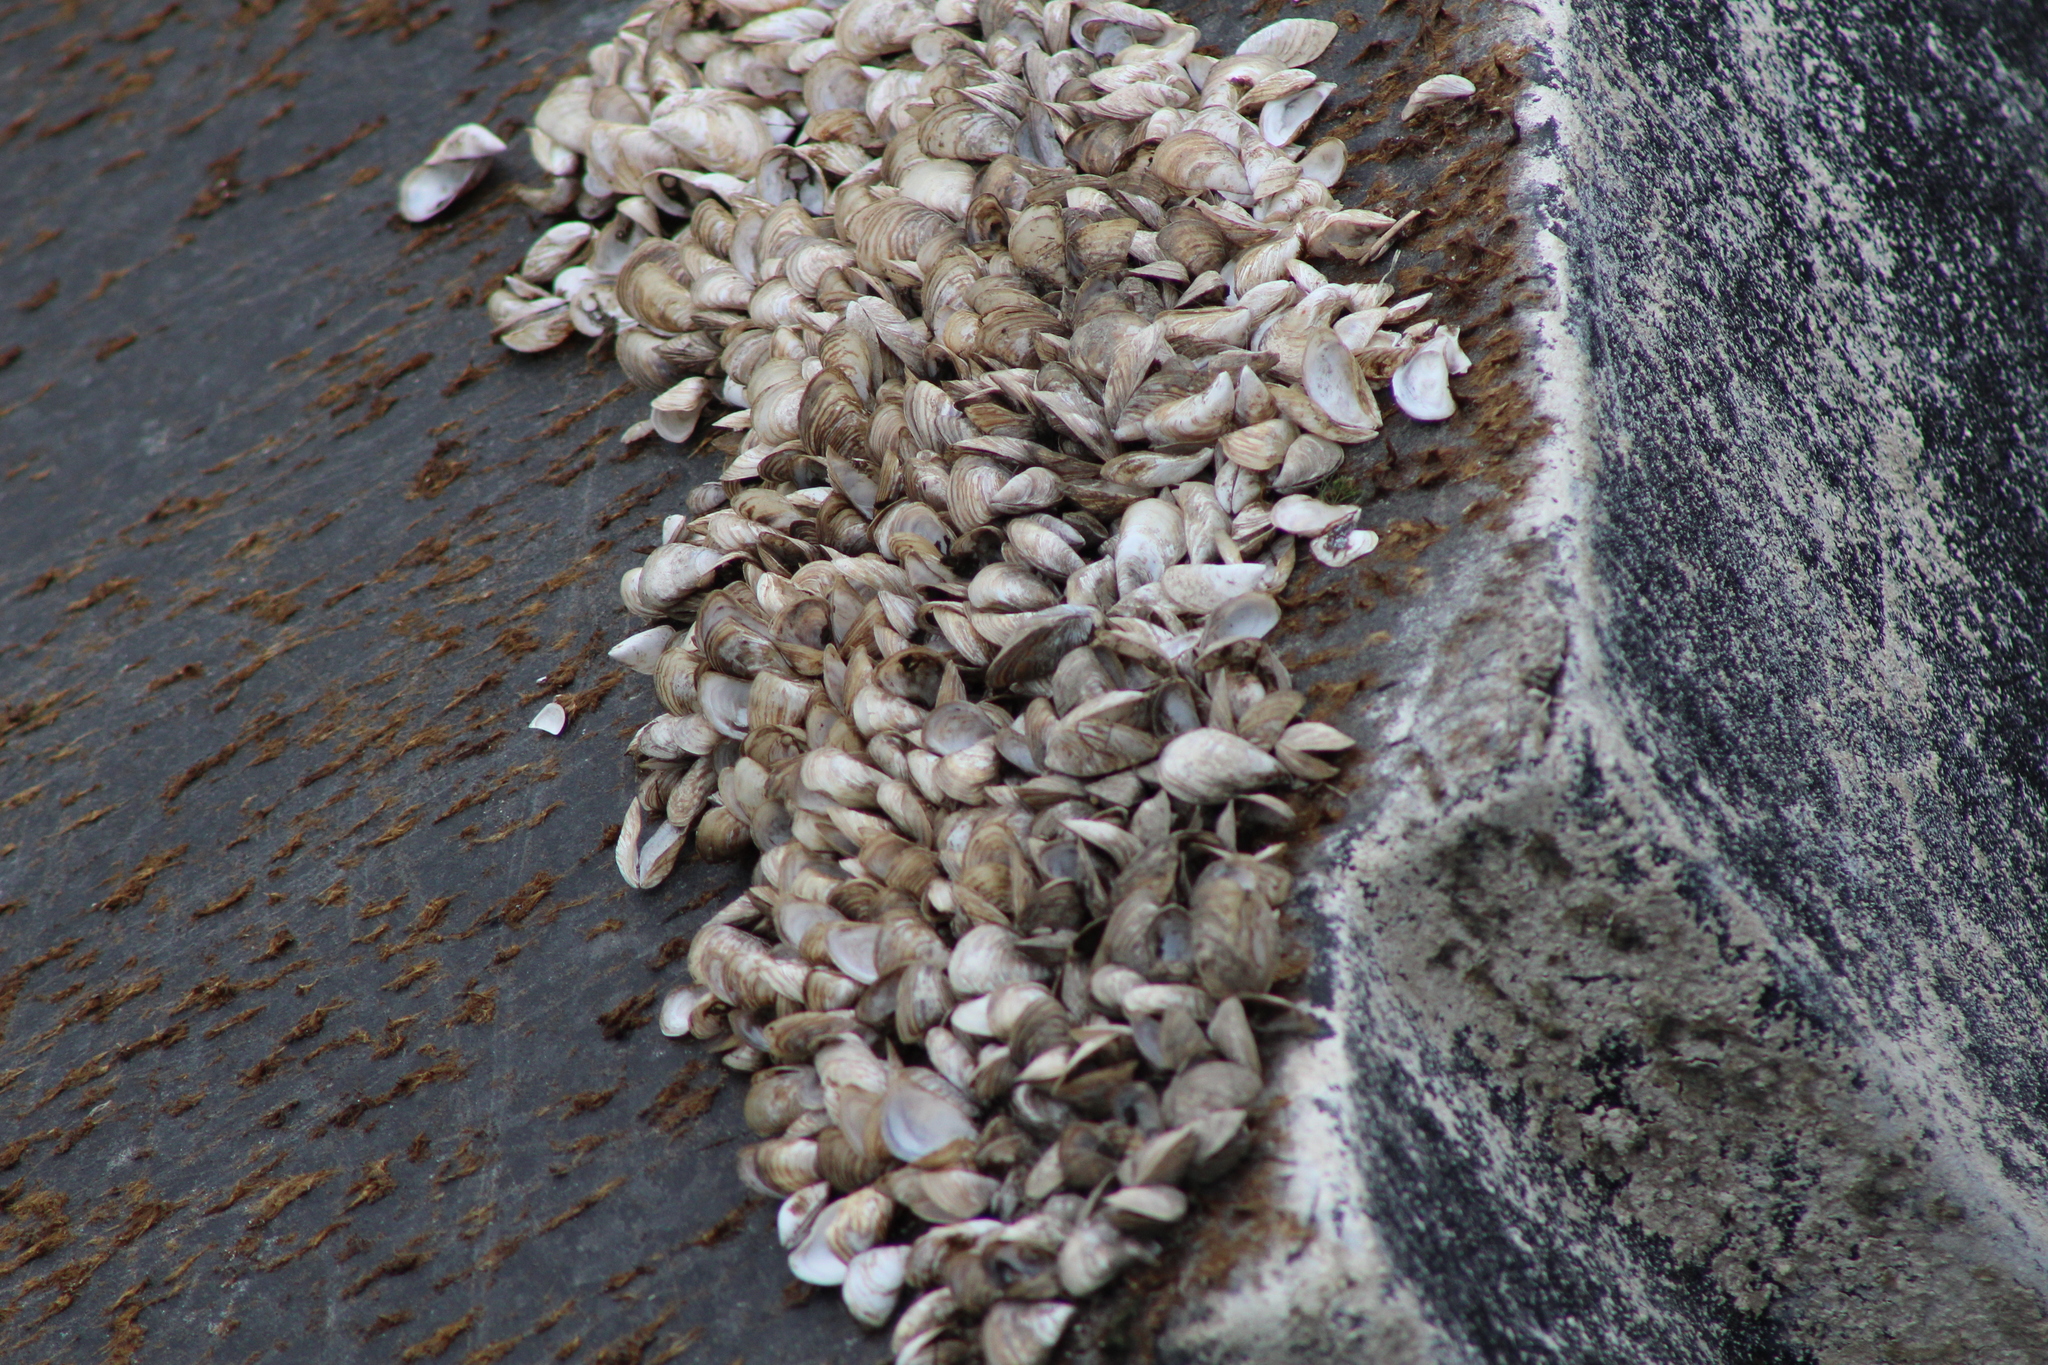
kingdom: Animalia
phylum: Mollusca
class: Bivalvia
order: Myida
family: Dreissenidae
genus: Dreissena
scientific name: Dreissena bugensis
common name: Quagga mussel
